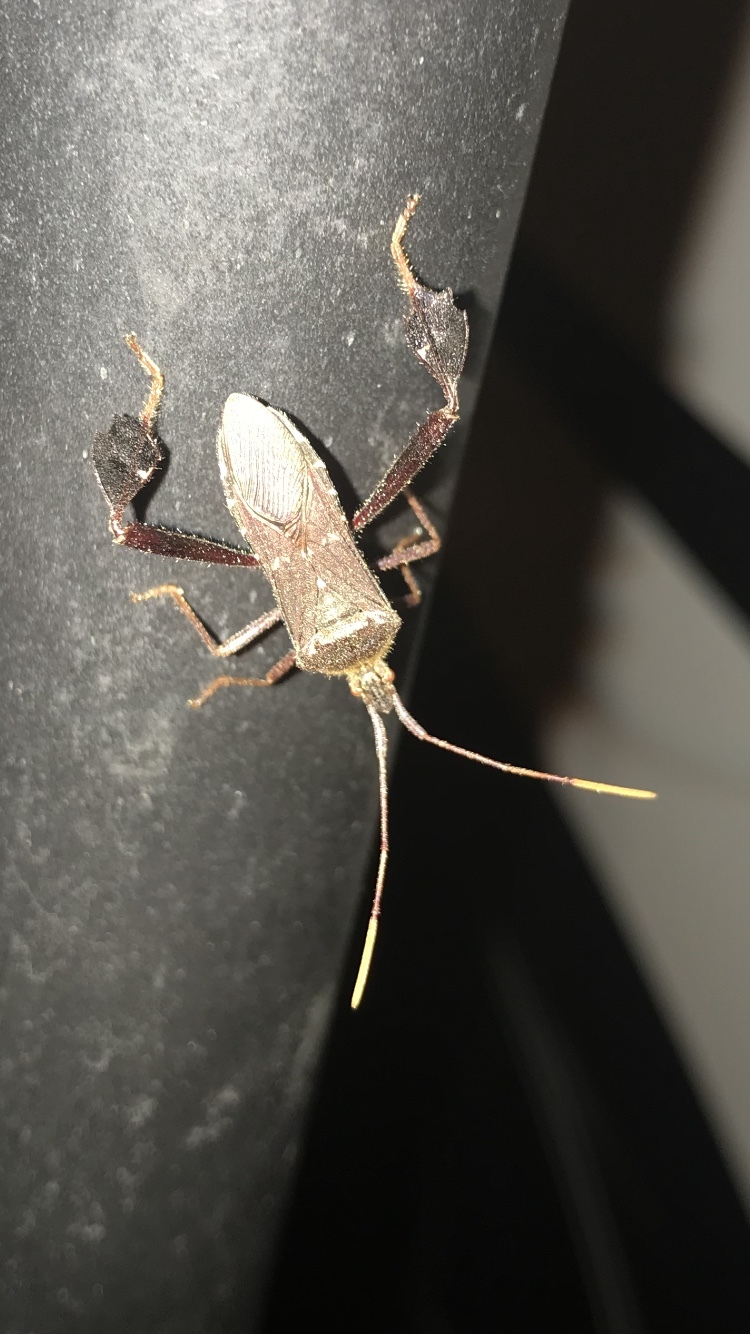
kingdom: Animalia
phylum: Arthropoda
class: Insecta
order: Hemiptera
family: Coreidae
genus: Leptoglossus
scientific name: Leptoglossus oppositus
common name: Northern leaf-footed bug
